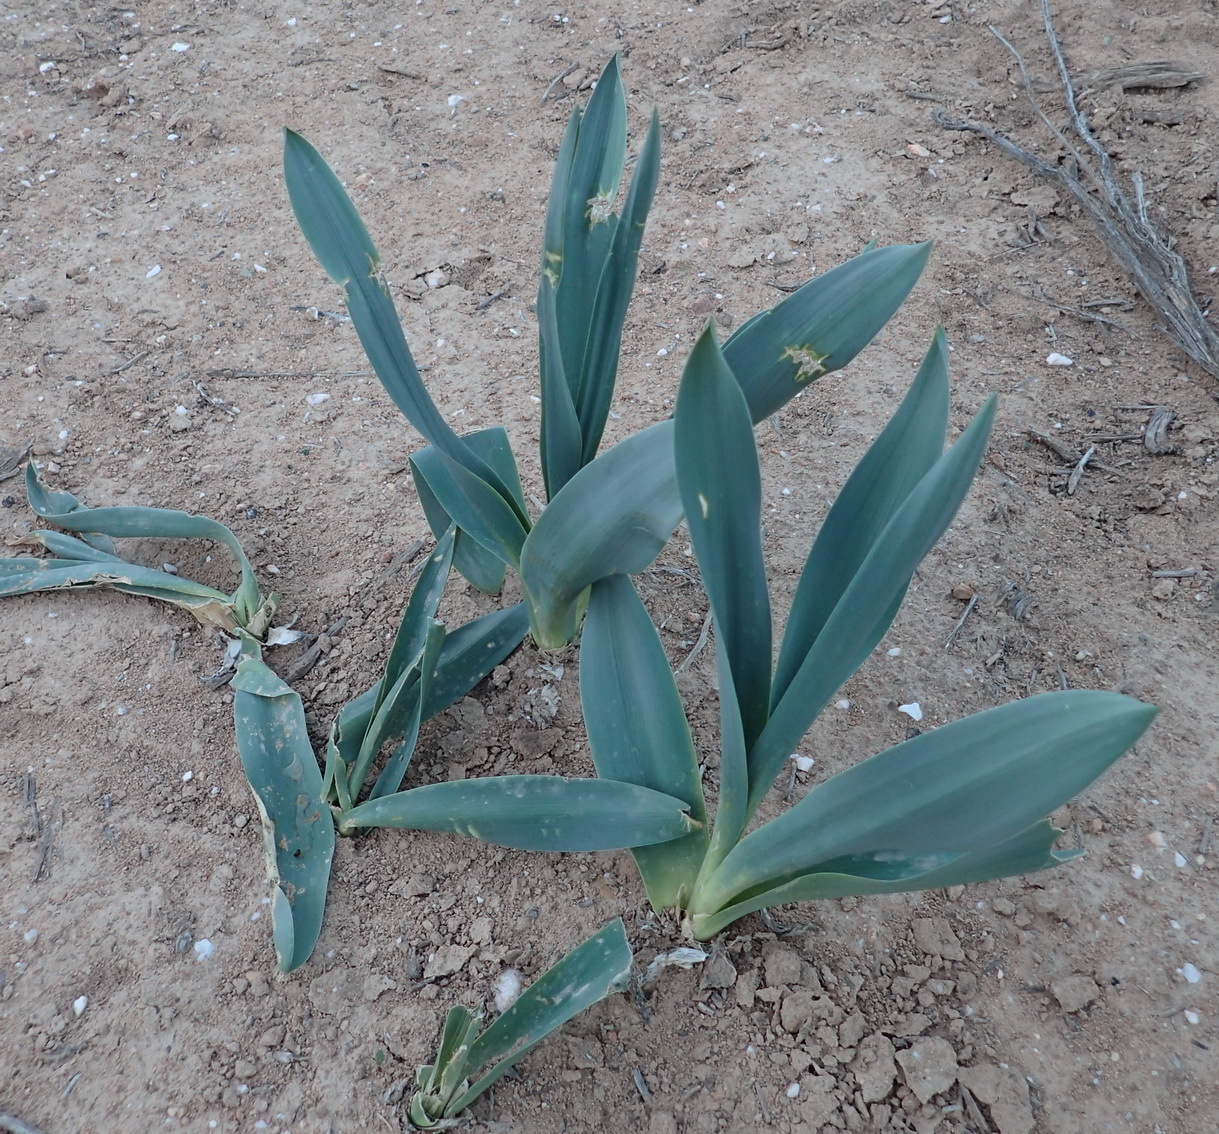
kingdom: Plantae
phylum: Tracheophyta
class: Liliopsida
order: Asparagales
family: Asparagaceae
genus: Drimia
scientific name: Drimia capensis
